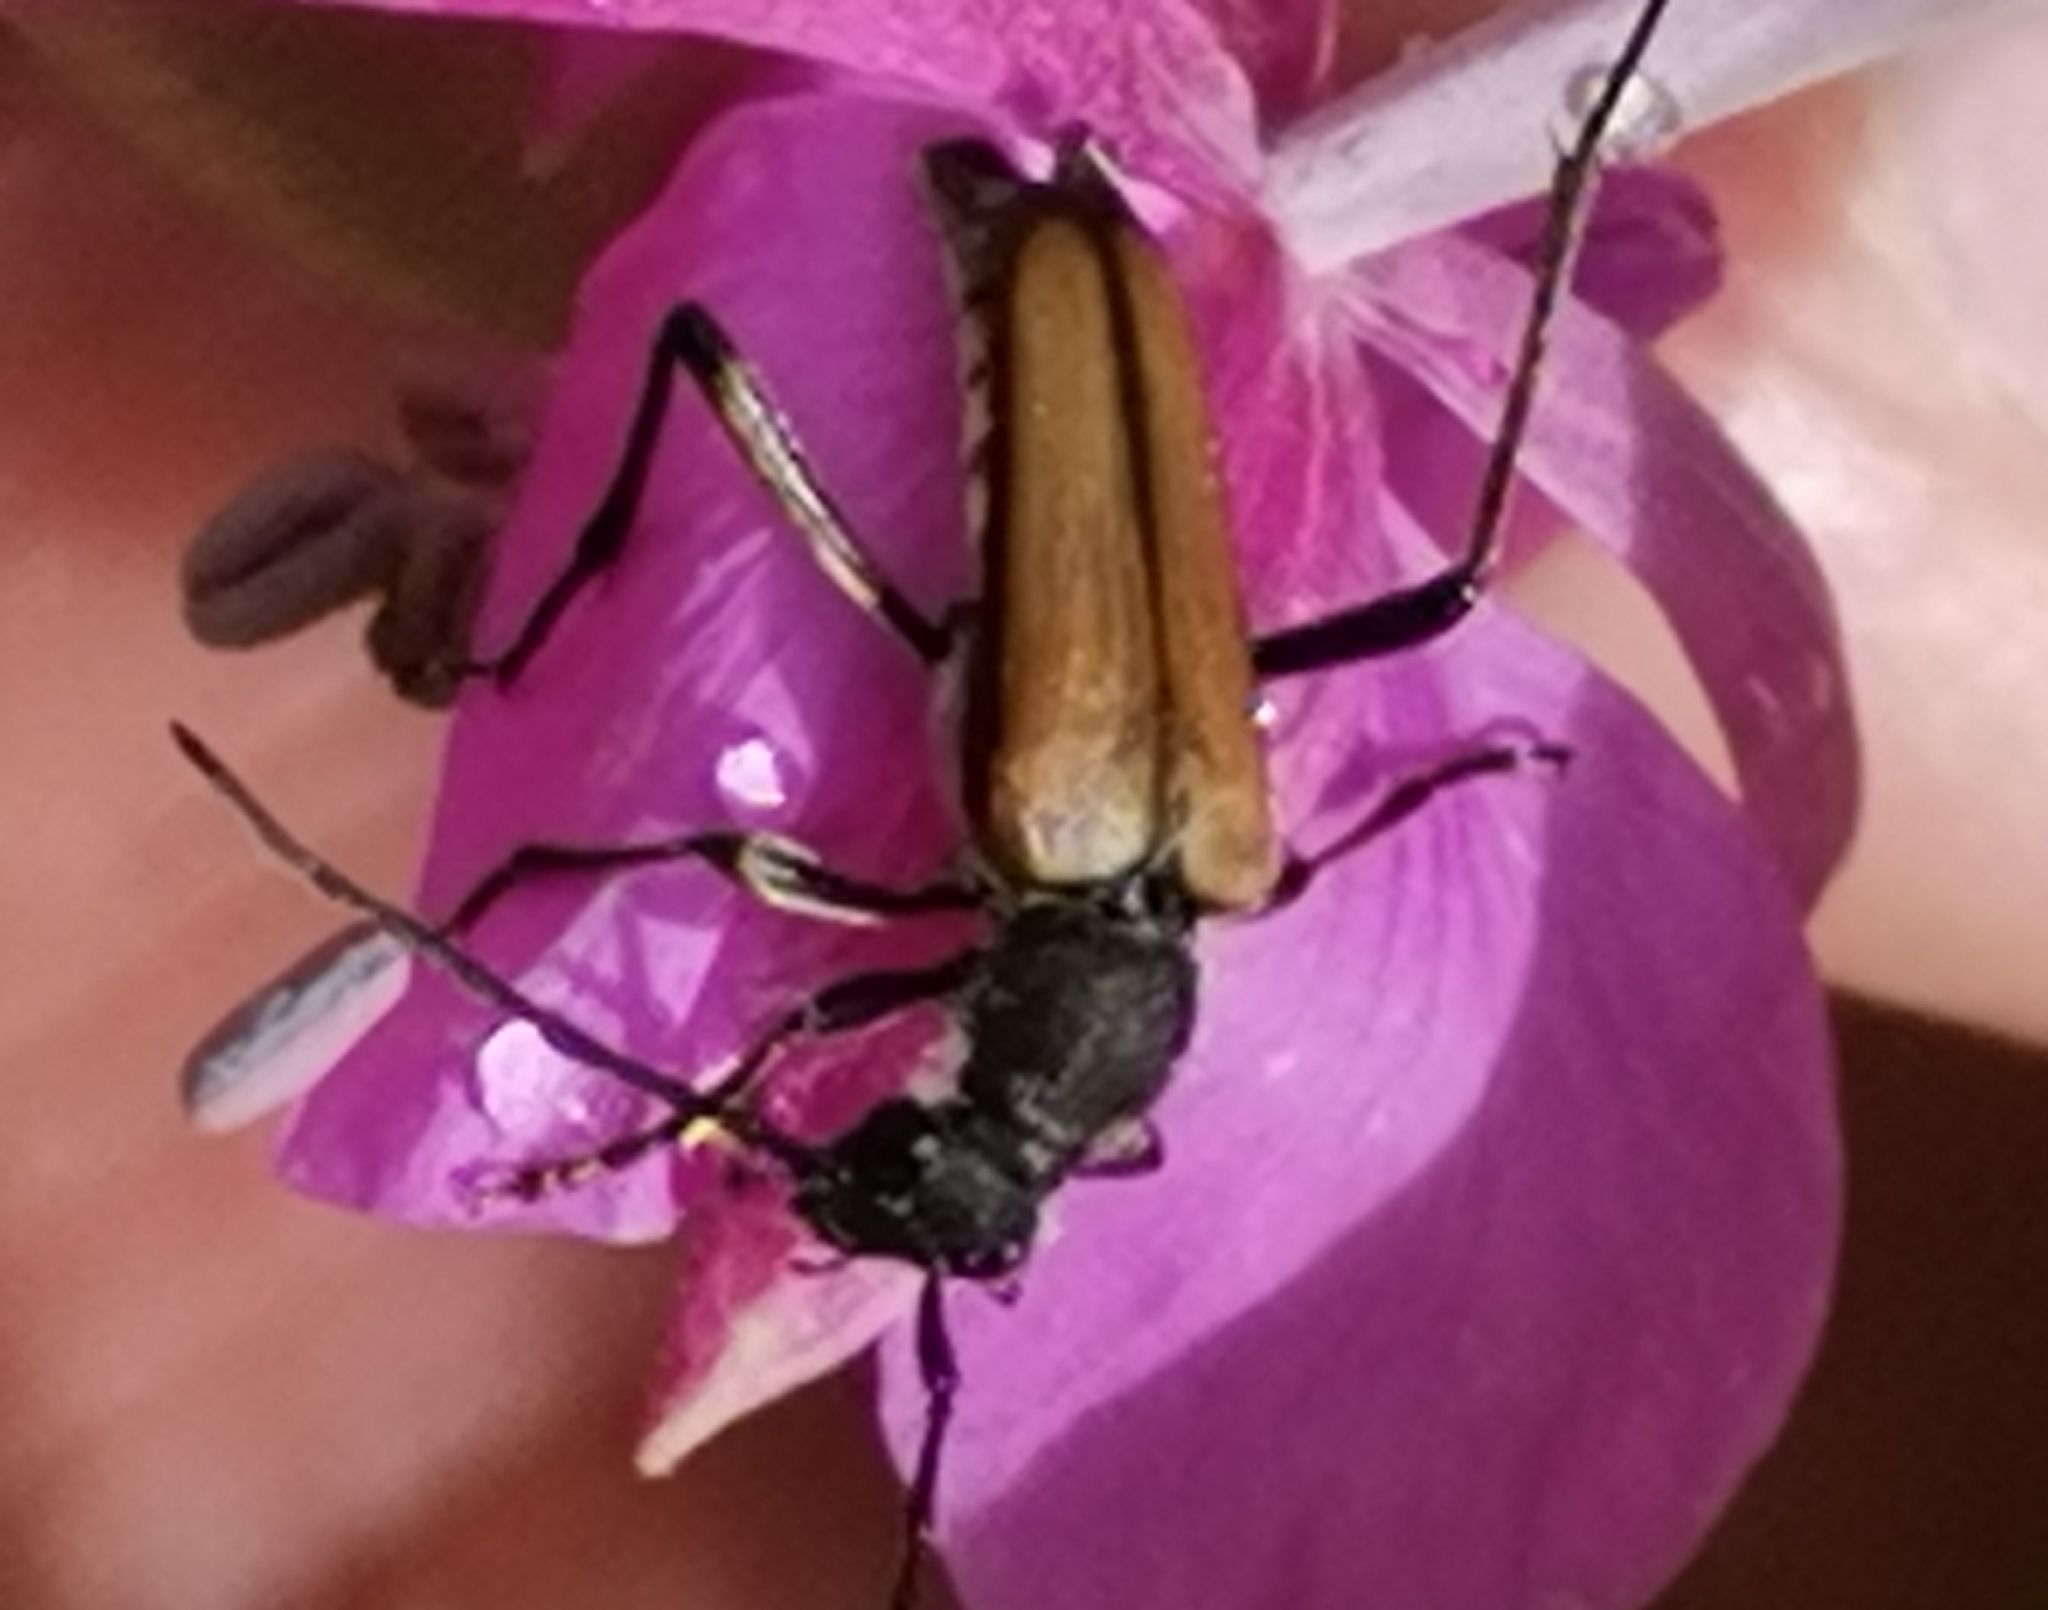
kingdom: Animalia
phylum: Arthropoda
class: Insecta
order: Coleoptera
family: Cerambycidae
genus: Anastrangalia
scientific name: Anastrangalia reyi
